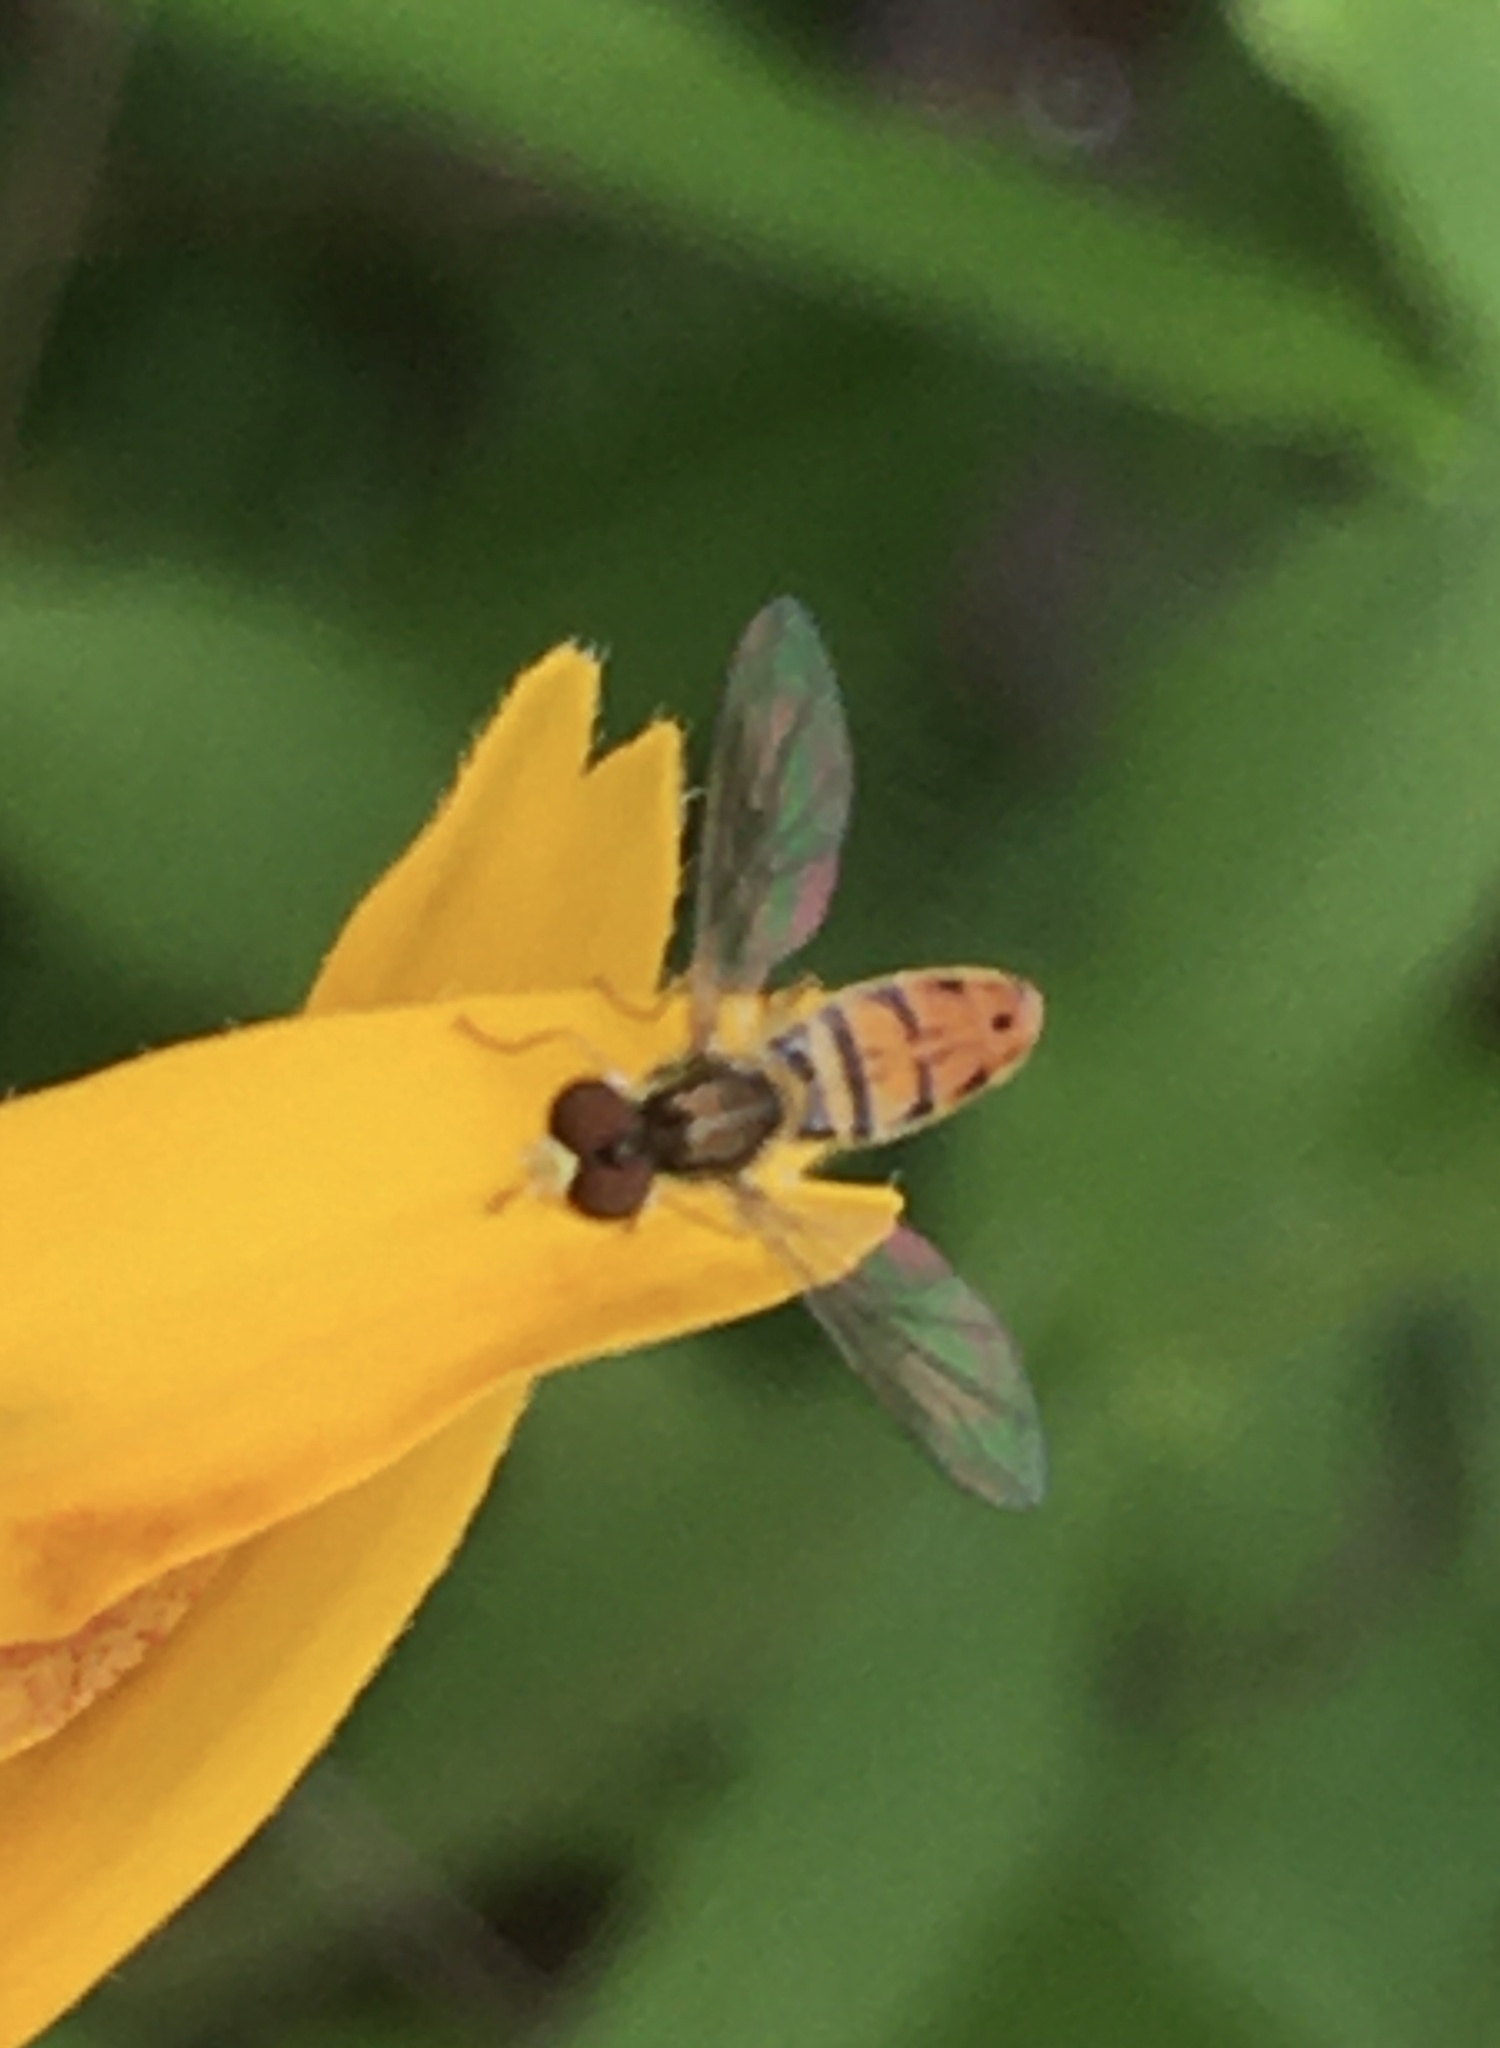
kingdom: Animalia
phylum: Arthropoda
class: Insecta
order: Diptera
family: Syrphidae
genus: Toxomerus
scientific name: Toxomerus marginatus
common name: Syrphid fly
